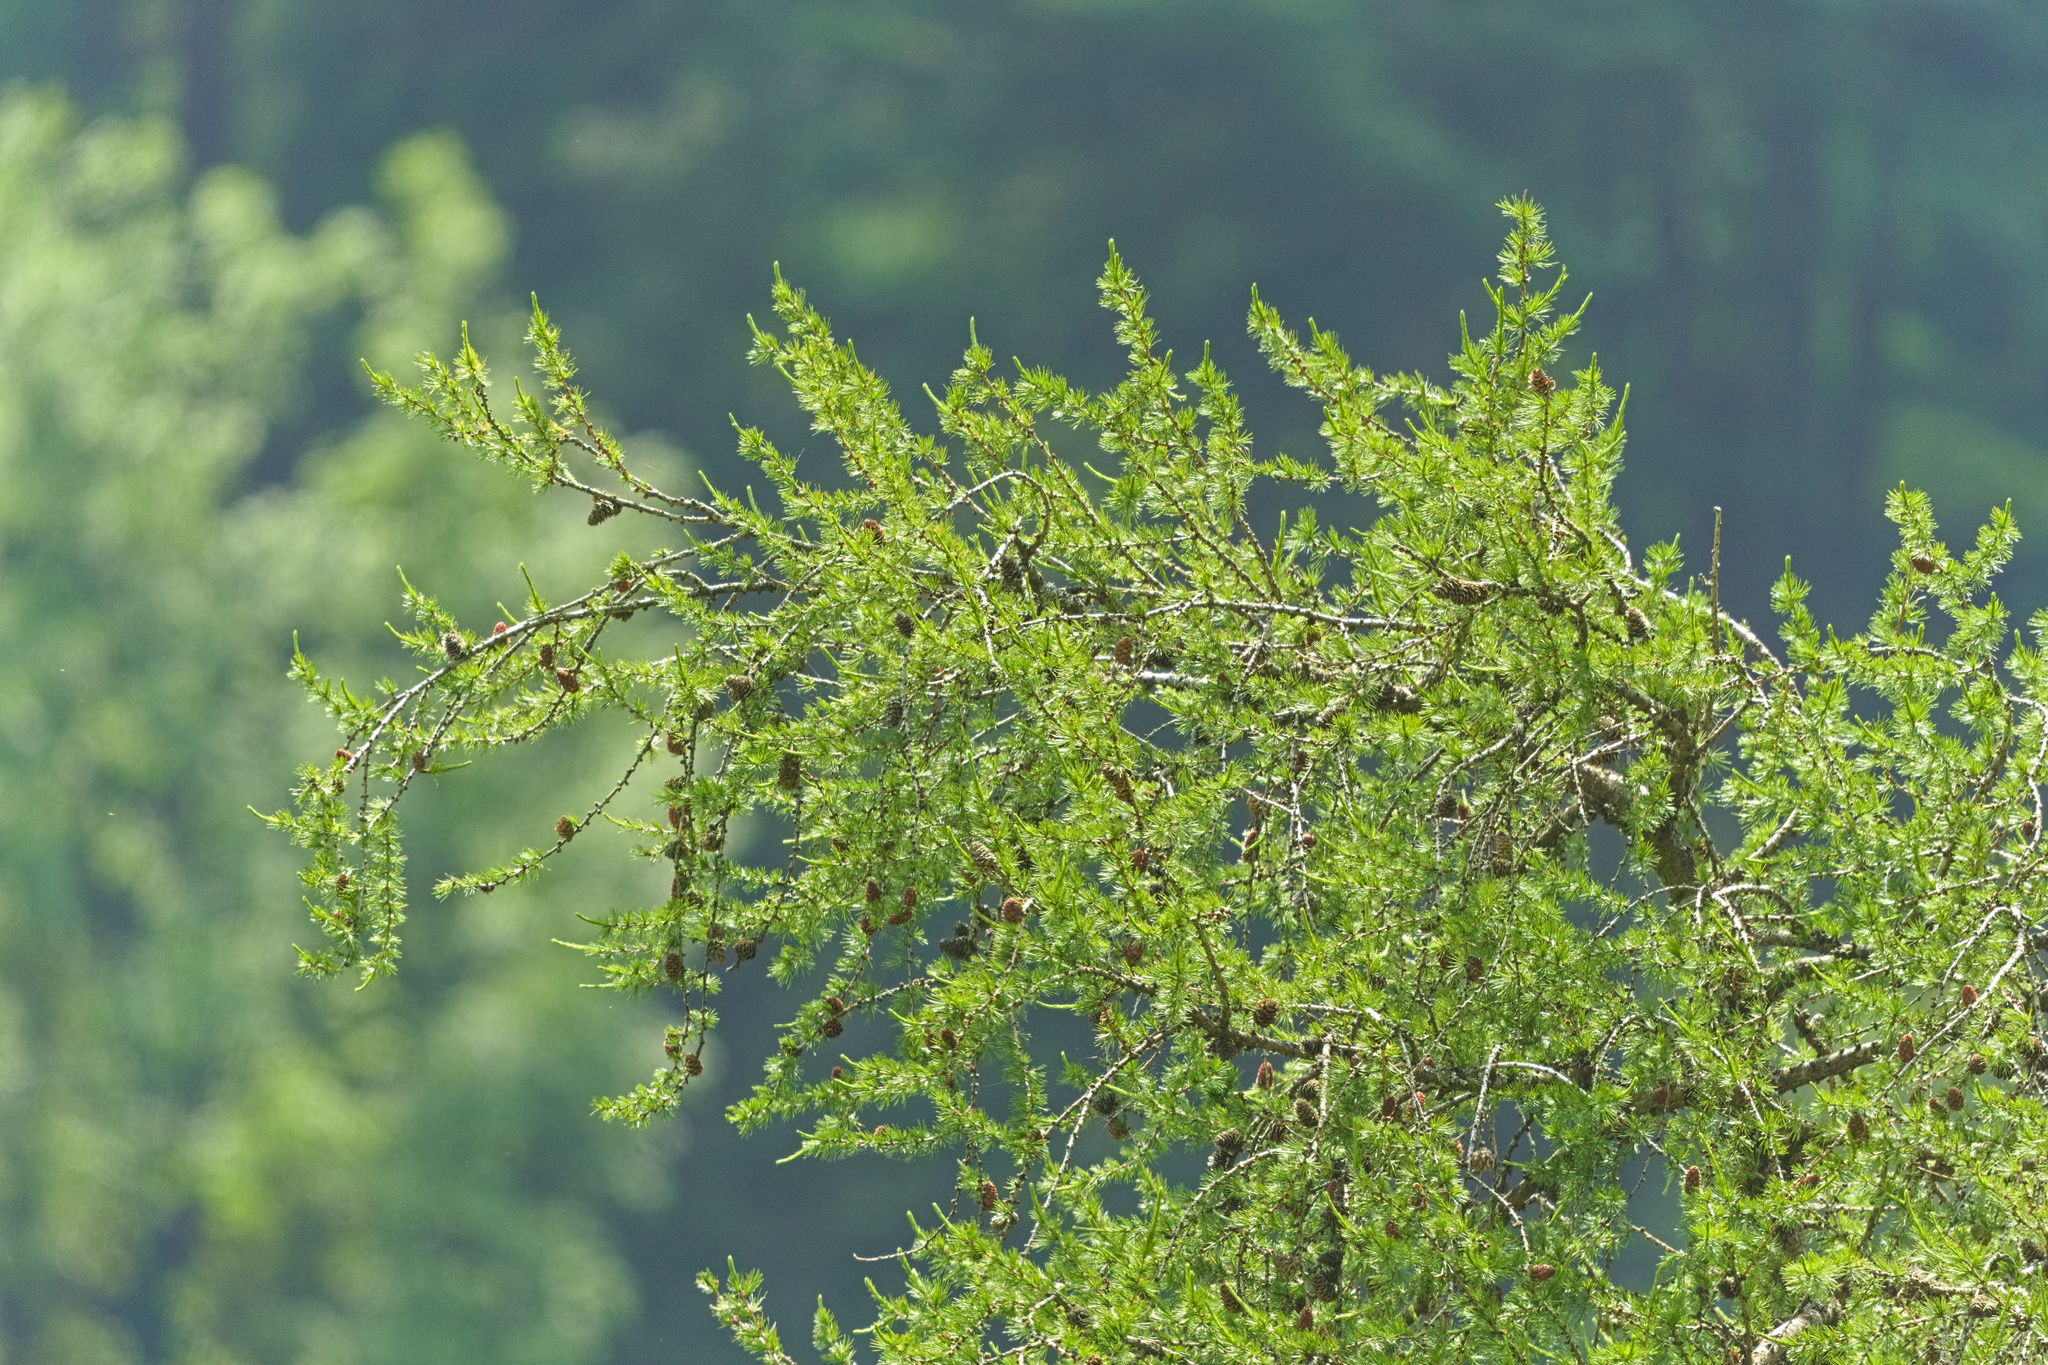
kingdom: Plantae
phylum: Tracheophyta
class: Pinopsida
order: Pinales
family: Pinaceae
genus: Larix
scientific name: Larix decidua
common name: European larch
